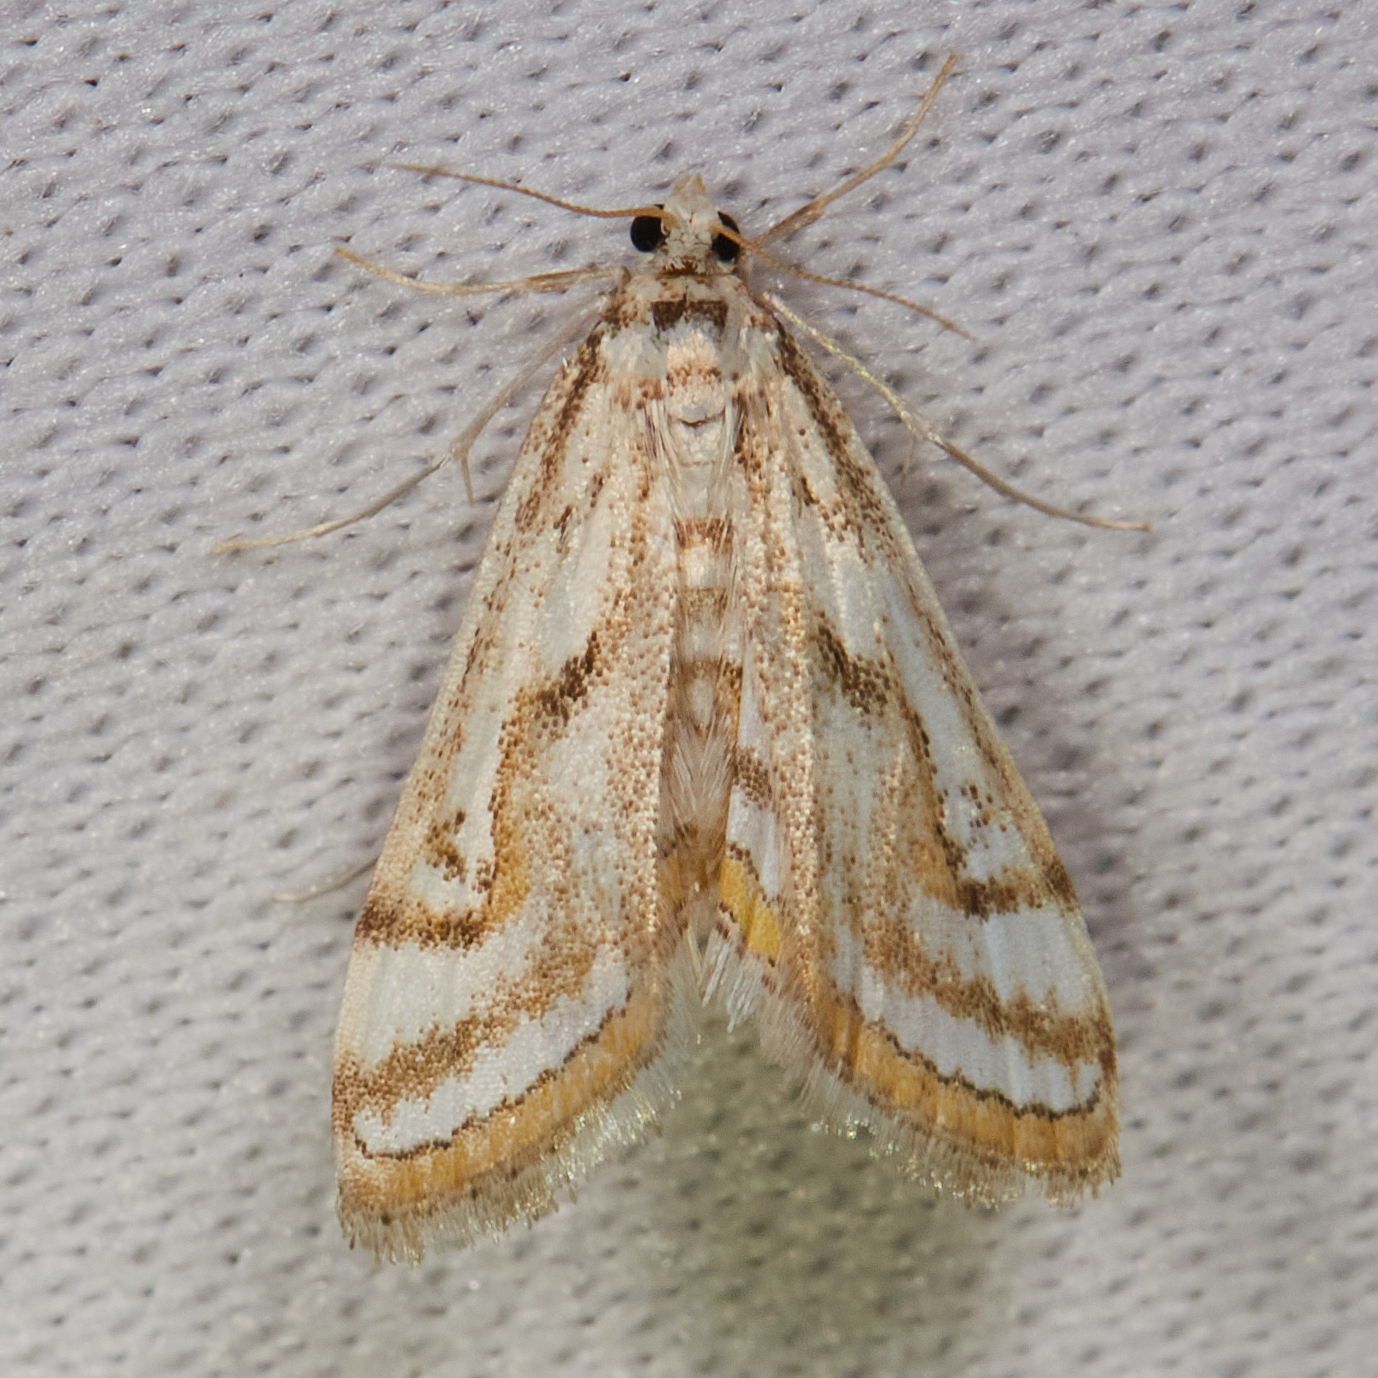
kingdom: Animalia
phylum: Arthropoda
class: Insecta
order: Lepidoptera
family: Crambidae
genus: Parapoynx
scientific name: Parapoynx badiusalis
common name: Chestnut-marked pondweed moth
